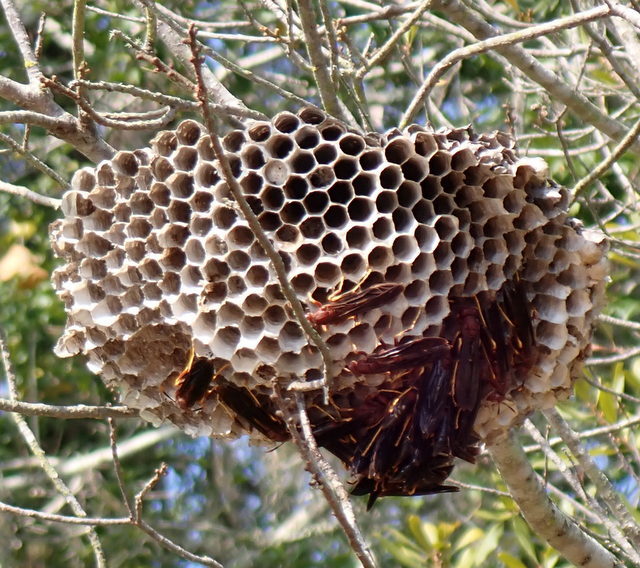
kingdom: Animalia
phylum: Arthropoda
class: Insecta
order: Hymenoptera
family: Eumenidae
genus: Polistes
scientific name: Polistes annularis
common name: Ringed paper wasp
